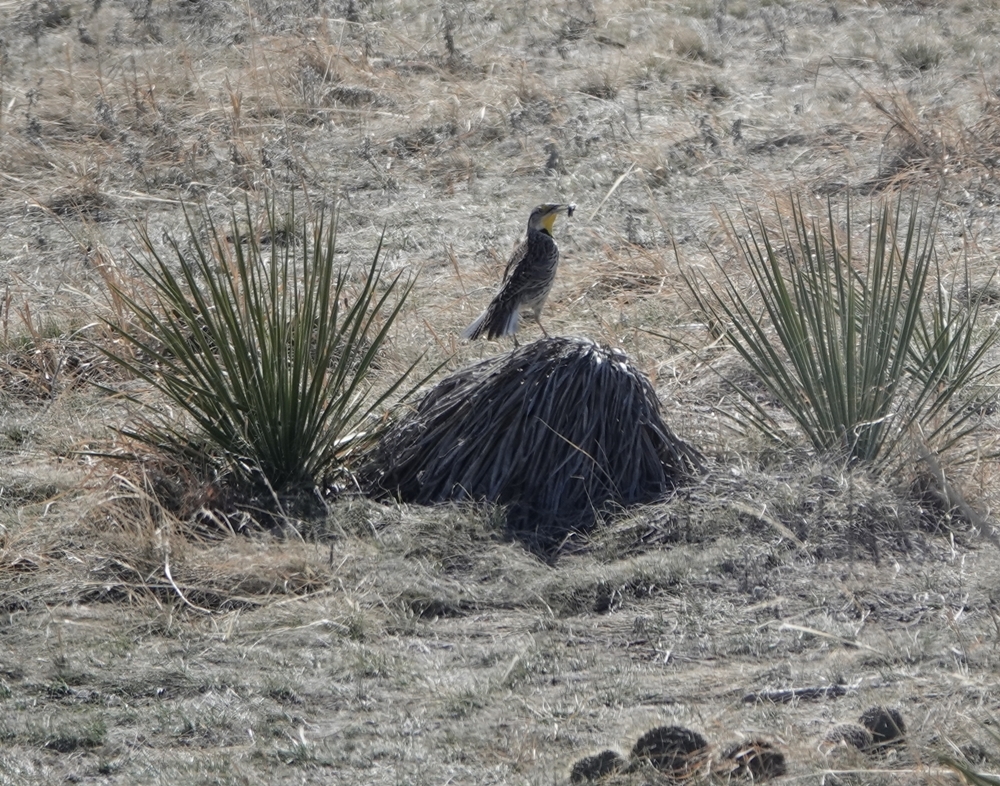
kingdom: Animalia
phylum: Chordata
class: Aves
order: Passeriformes
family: Icteridae
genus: Sturnella
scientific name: Sturnella neglecta
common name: Western meadowlark
